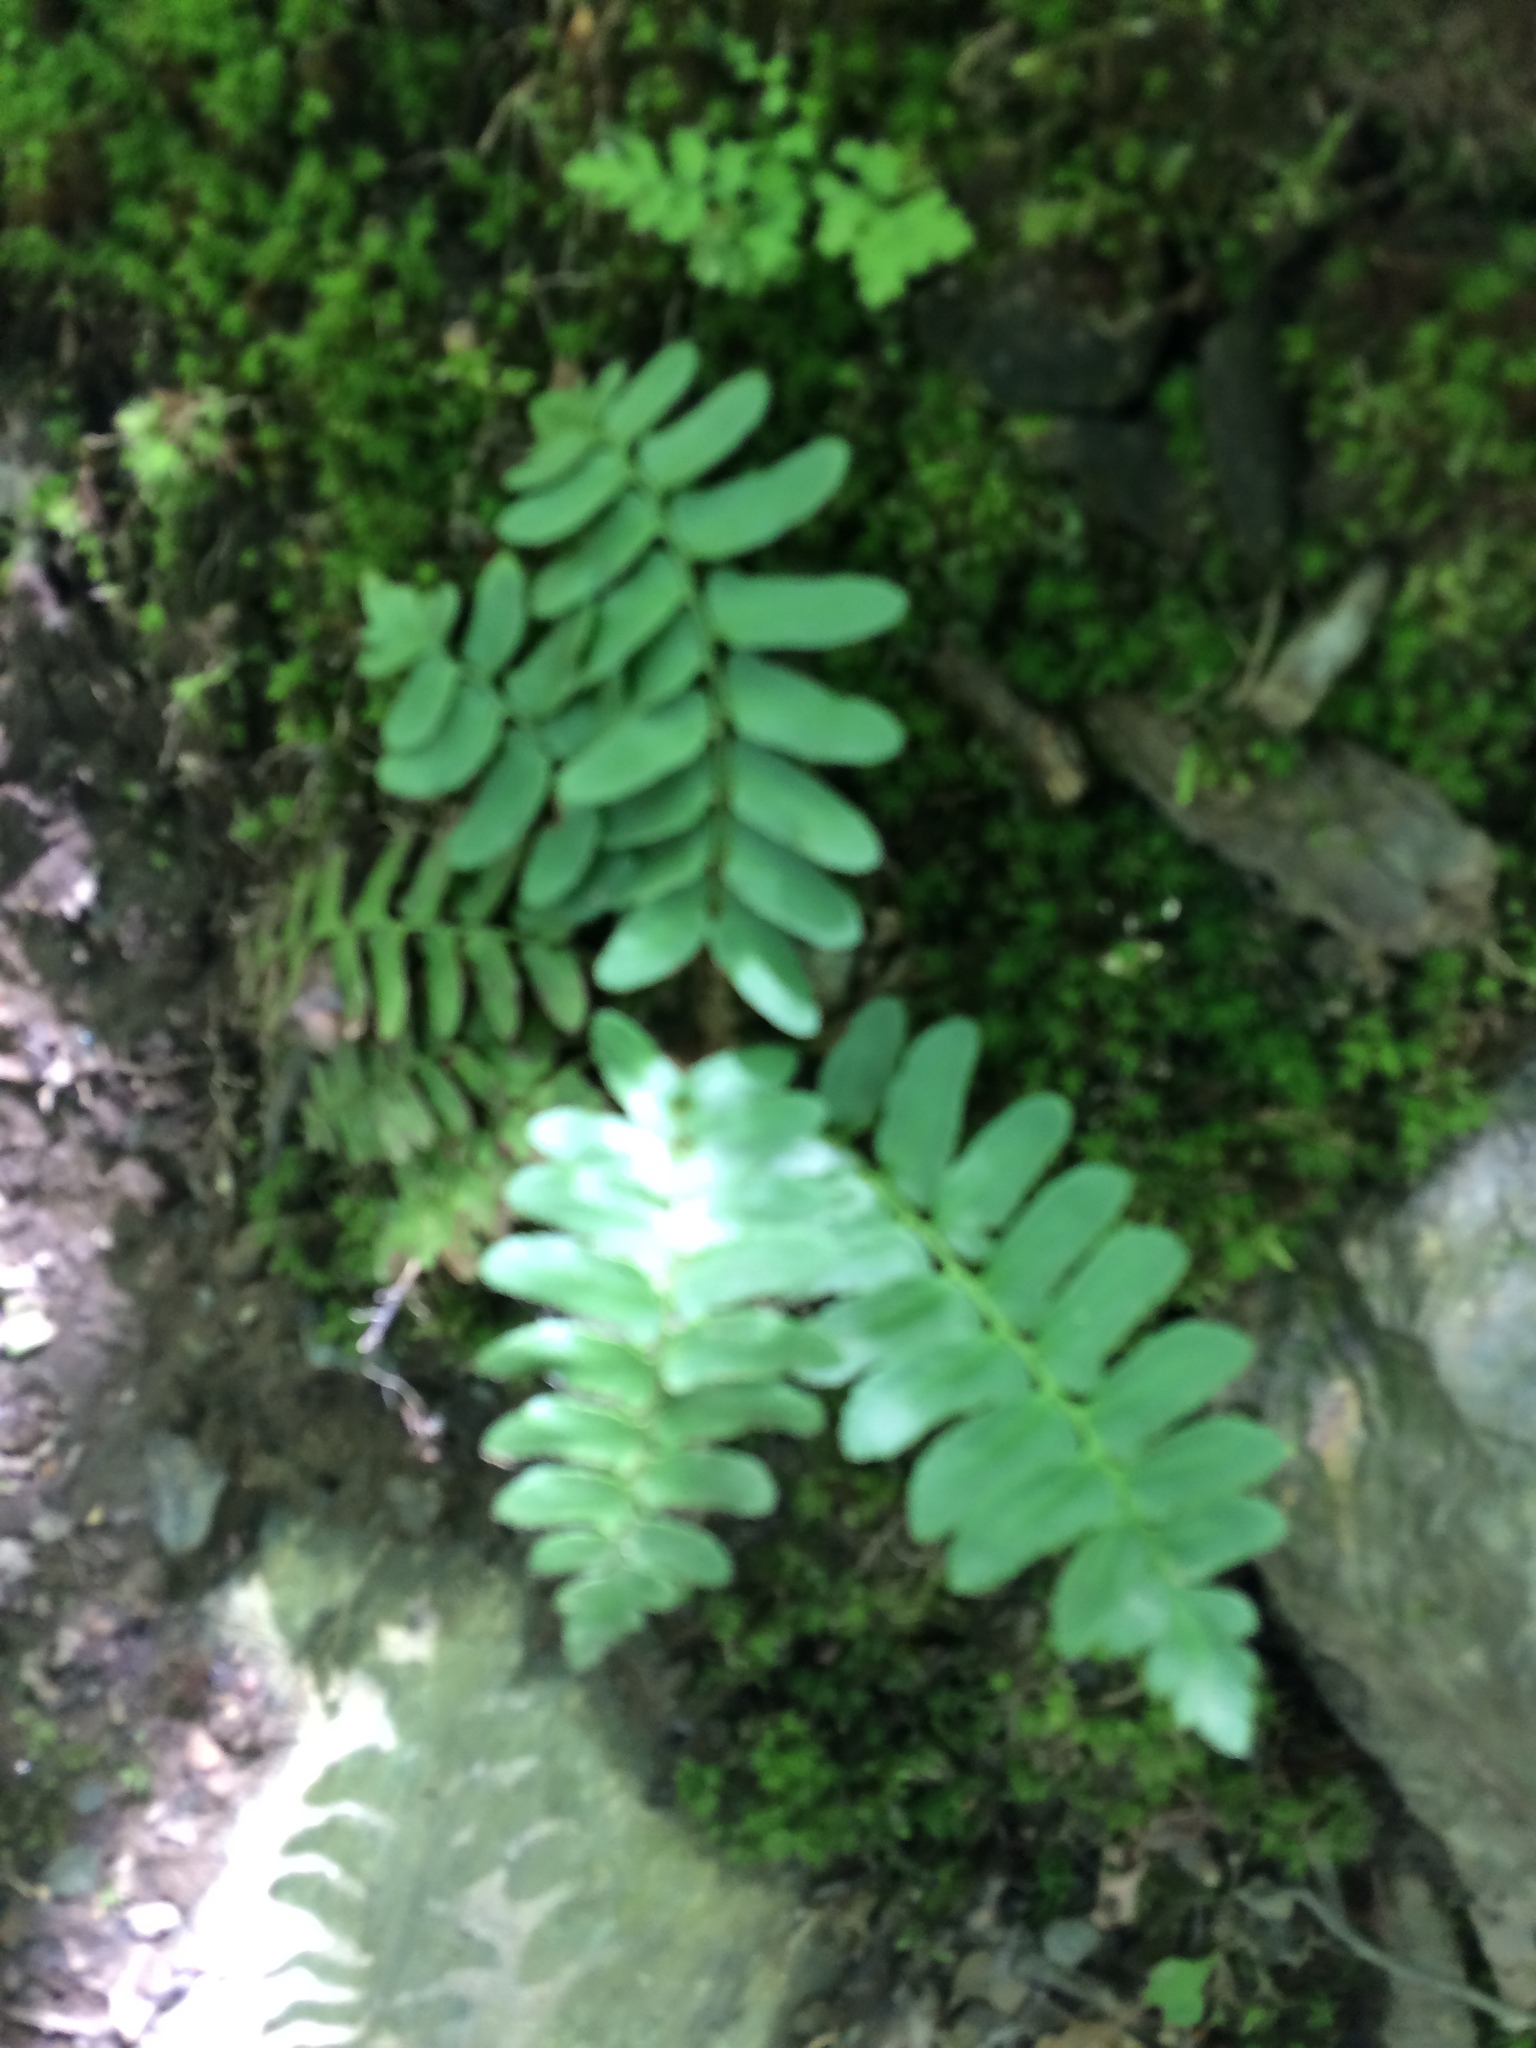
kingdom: Plantae
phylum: Tracheophyta
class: Polypodiopsida
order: Polypodiales
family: Dryopteridaceae
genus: Polystichum
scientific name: Polystichum acrostichoides
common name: Christmas fern
